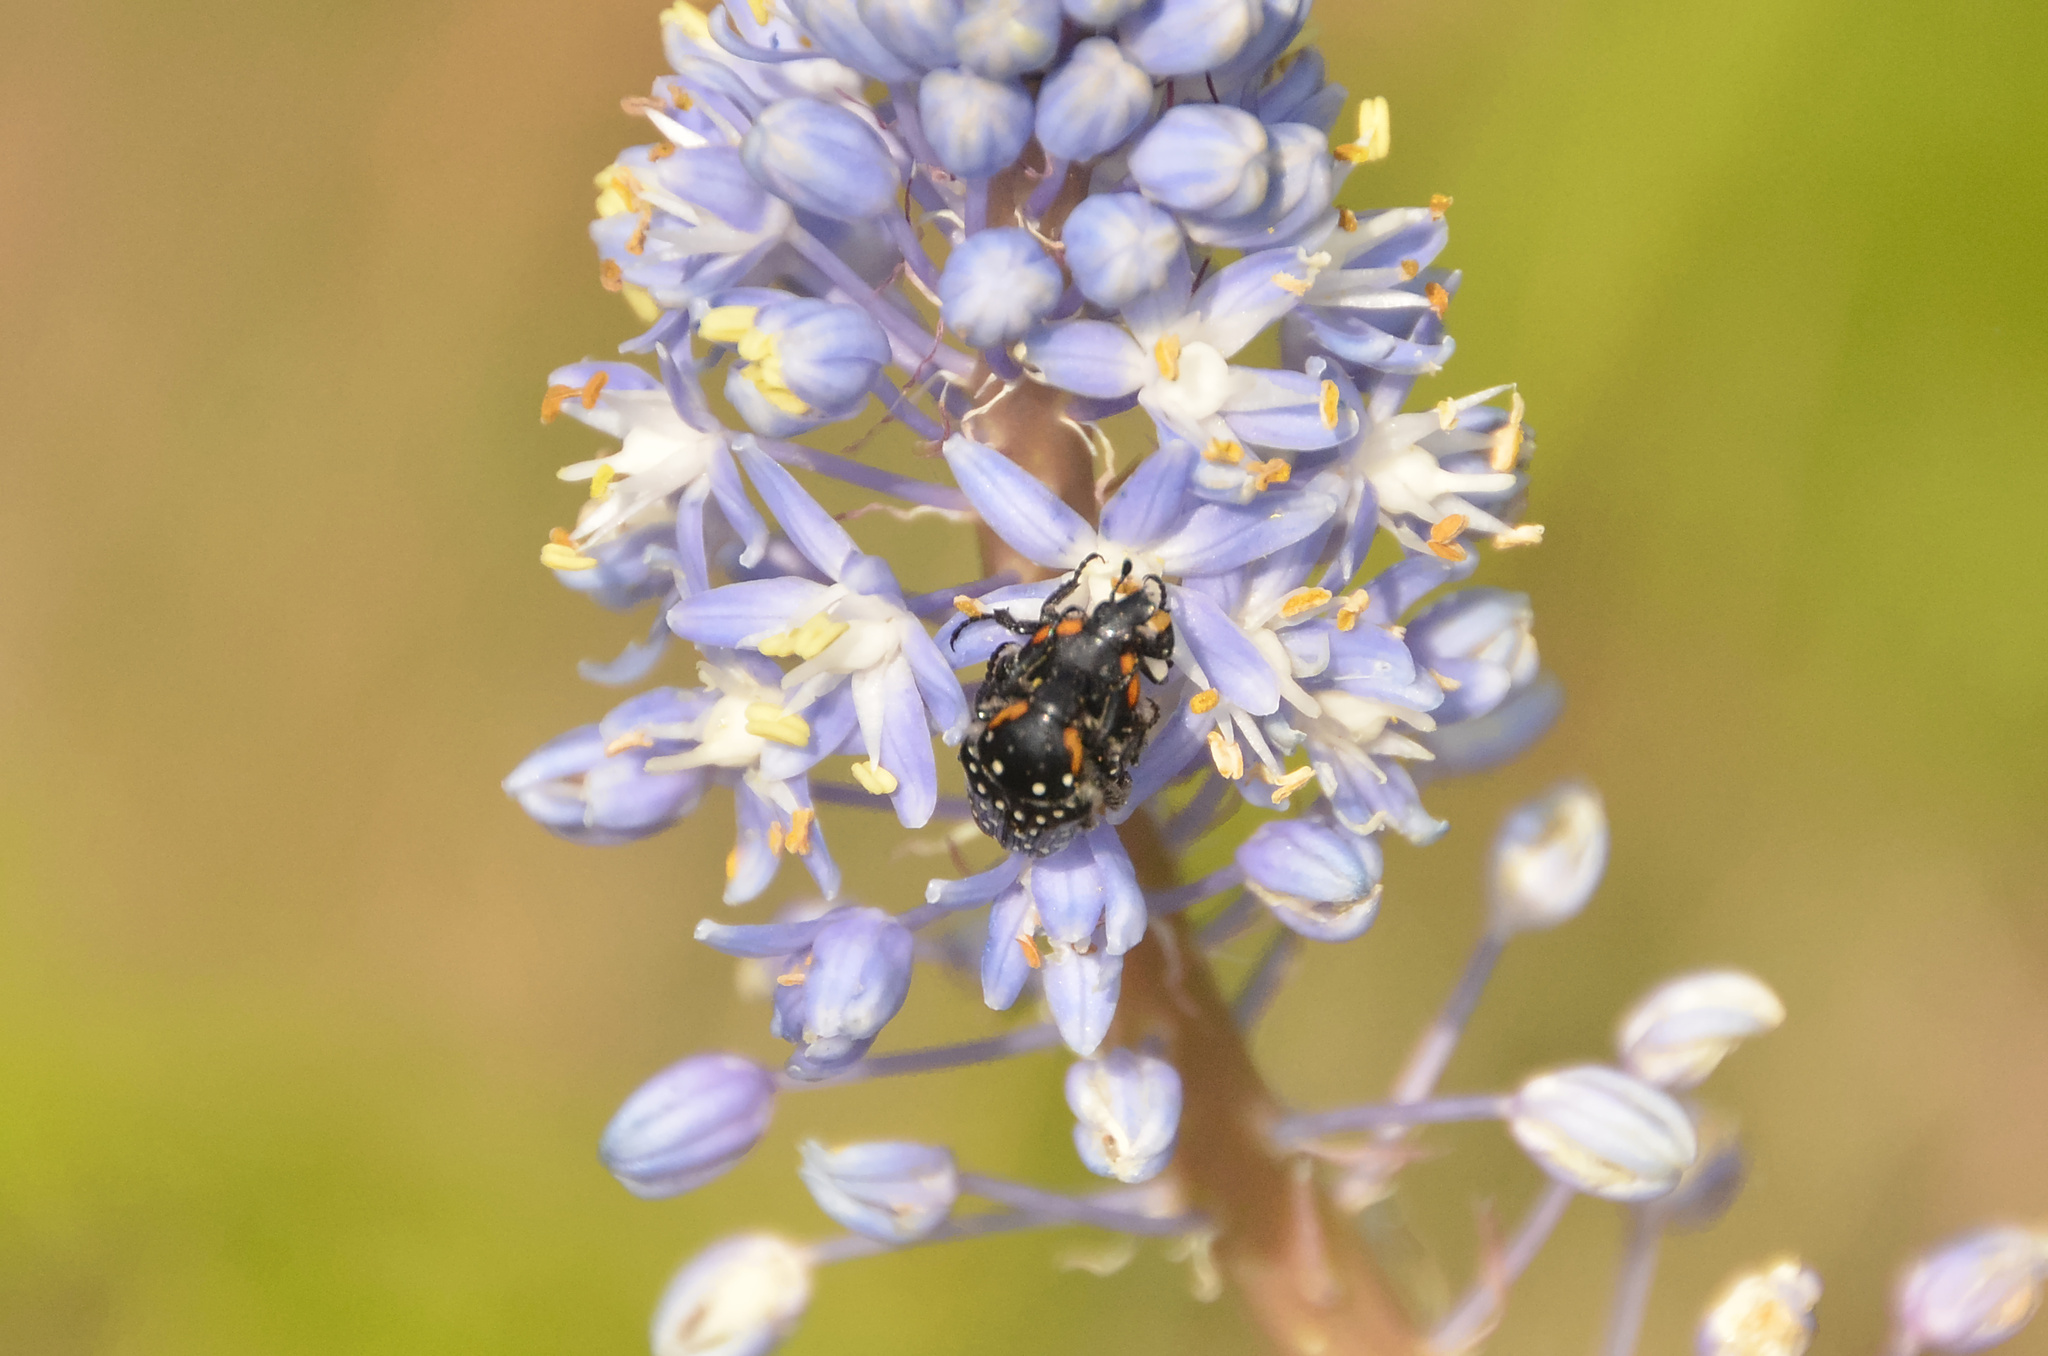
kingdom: Animalia
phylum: Arthropoda
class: Insecta
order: Coleoptera
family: Scarabaeidae
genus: Oxythyrea
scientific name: Oxythyrea
